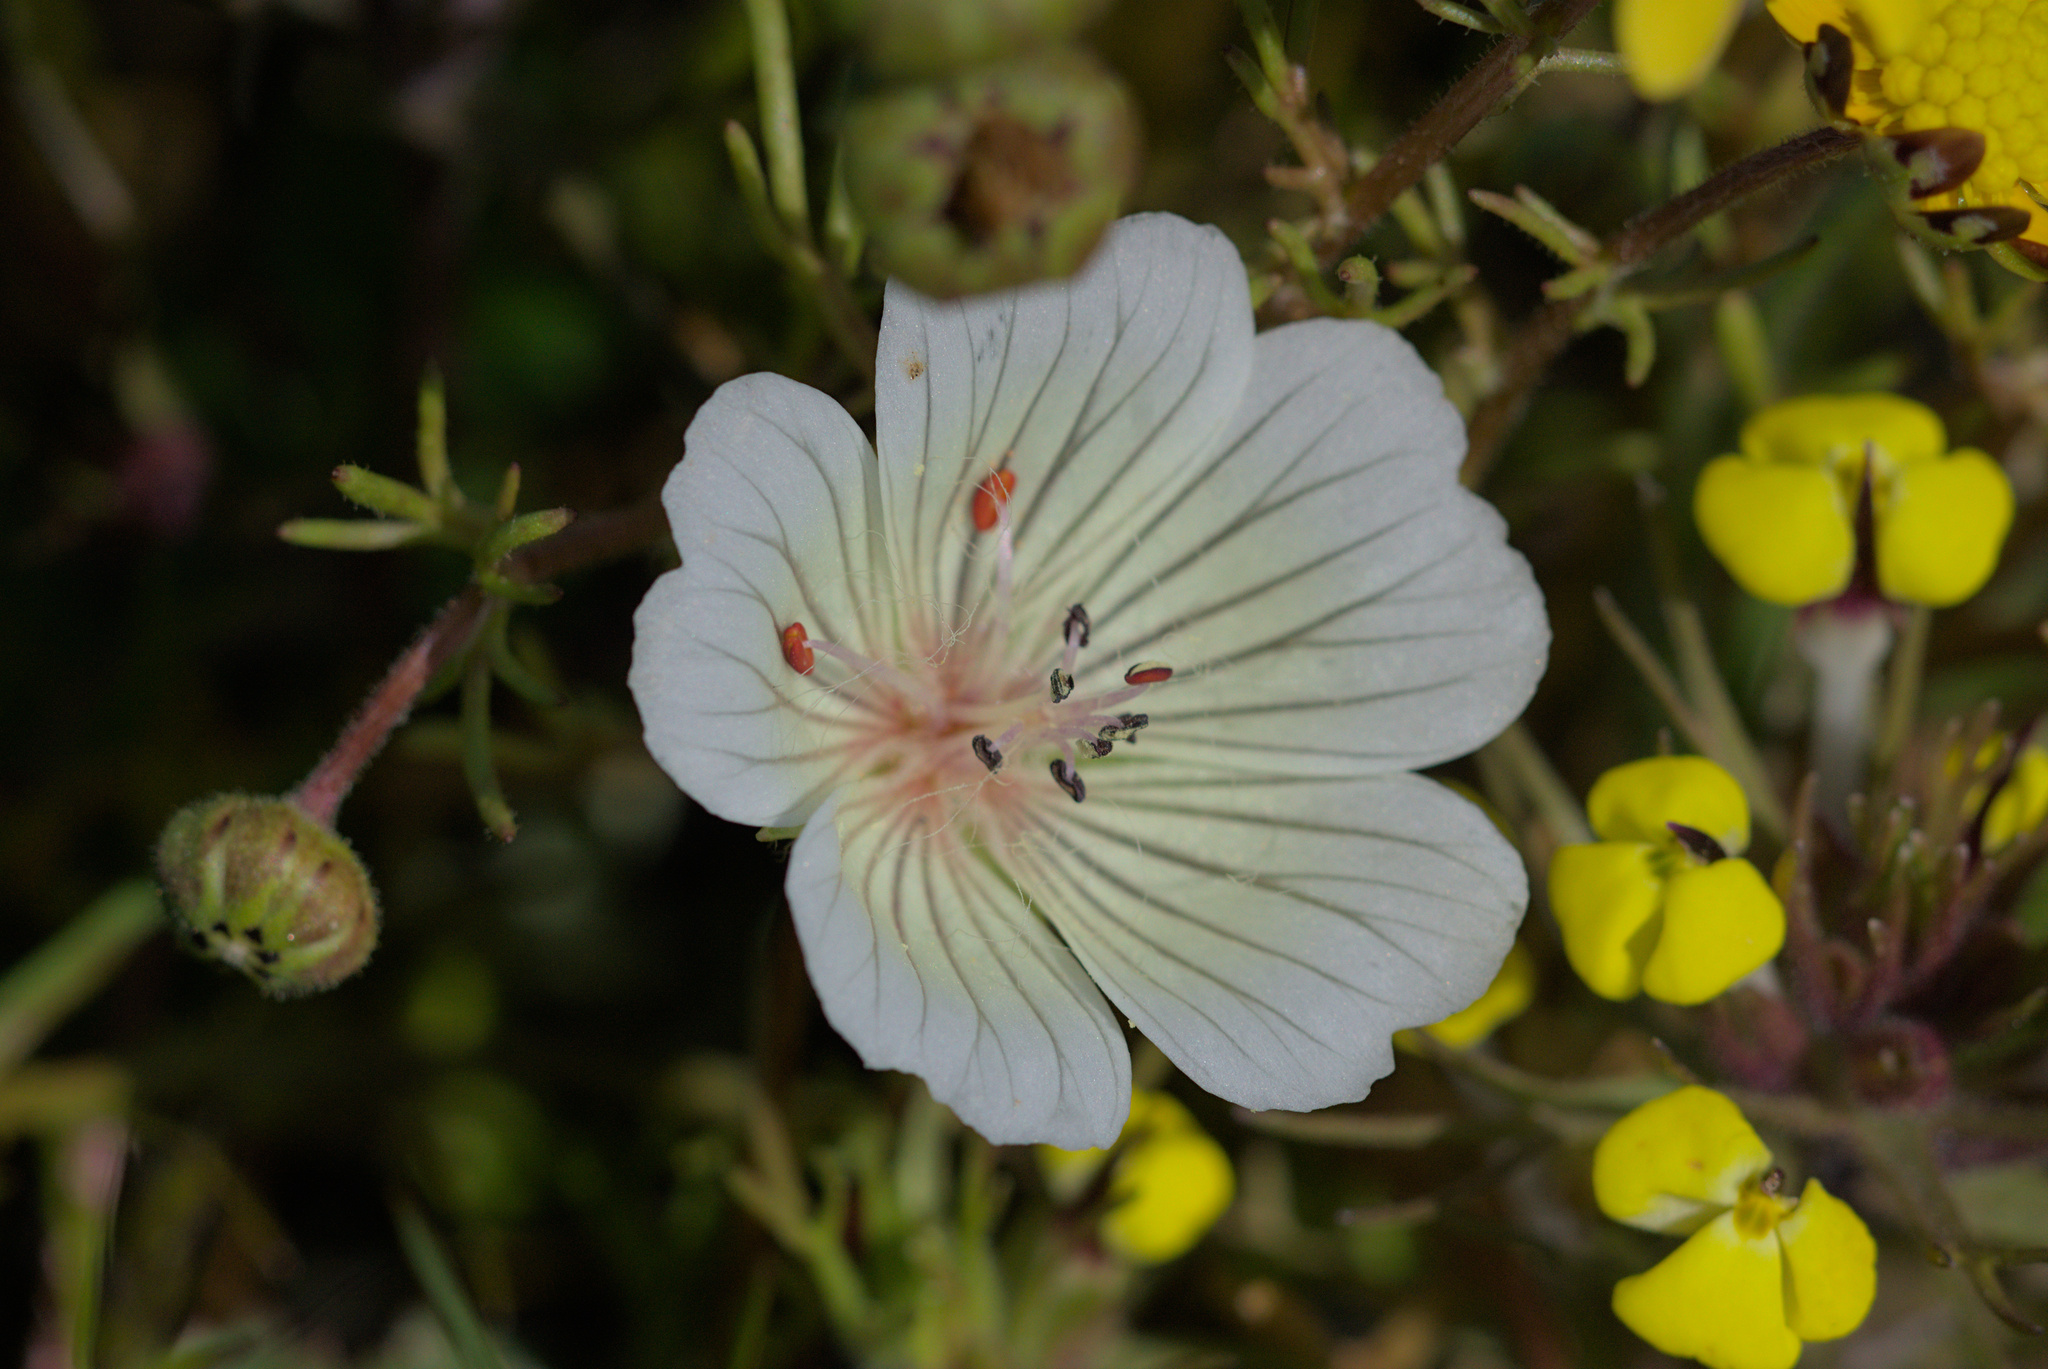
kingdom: Plantae
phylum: Tracheophyta
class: Magnoliopsida
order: Brassicales
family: Limnanthaceae
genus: Limnanthes
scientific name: Limnanthes douglasii
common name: Meadow-foam
